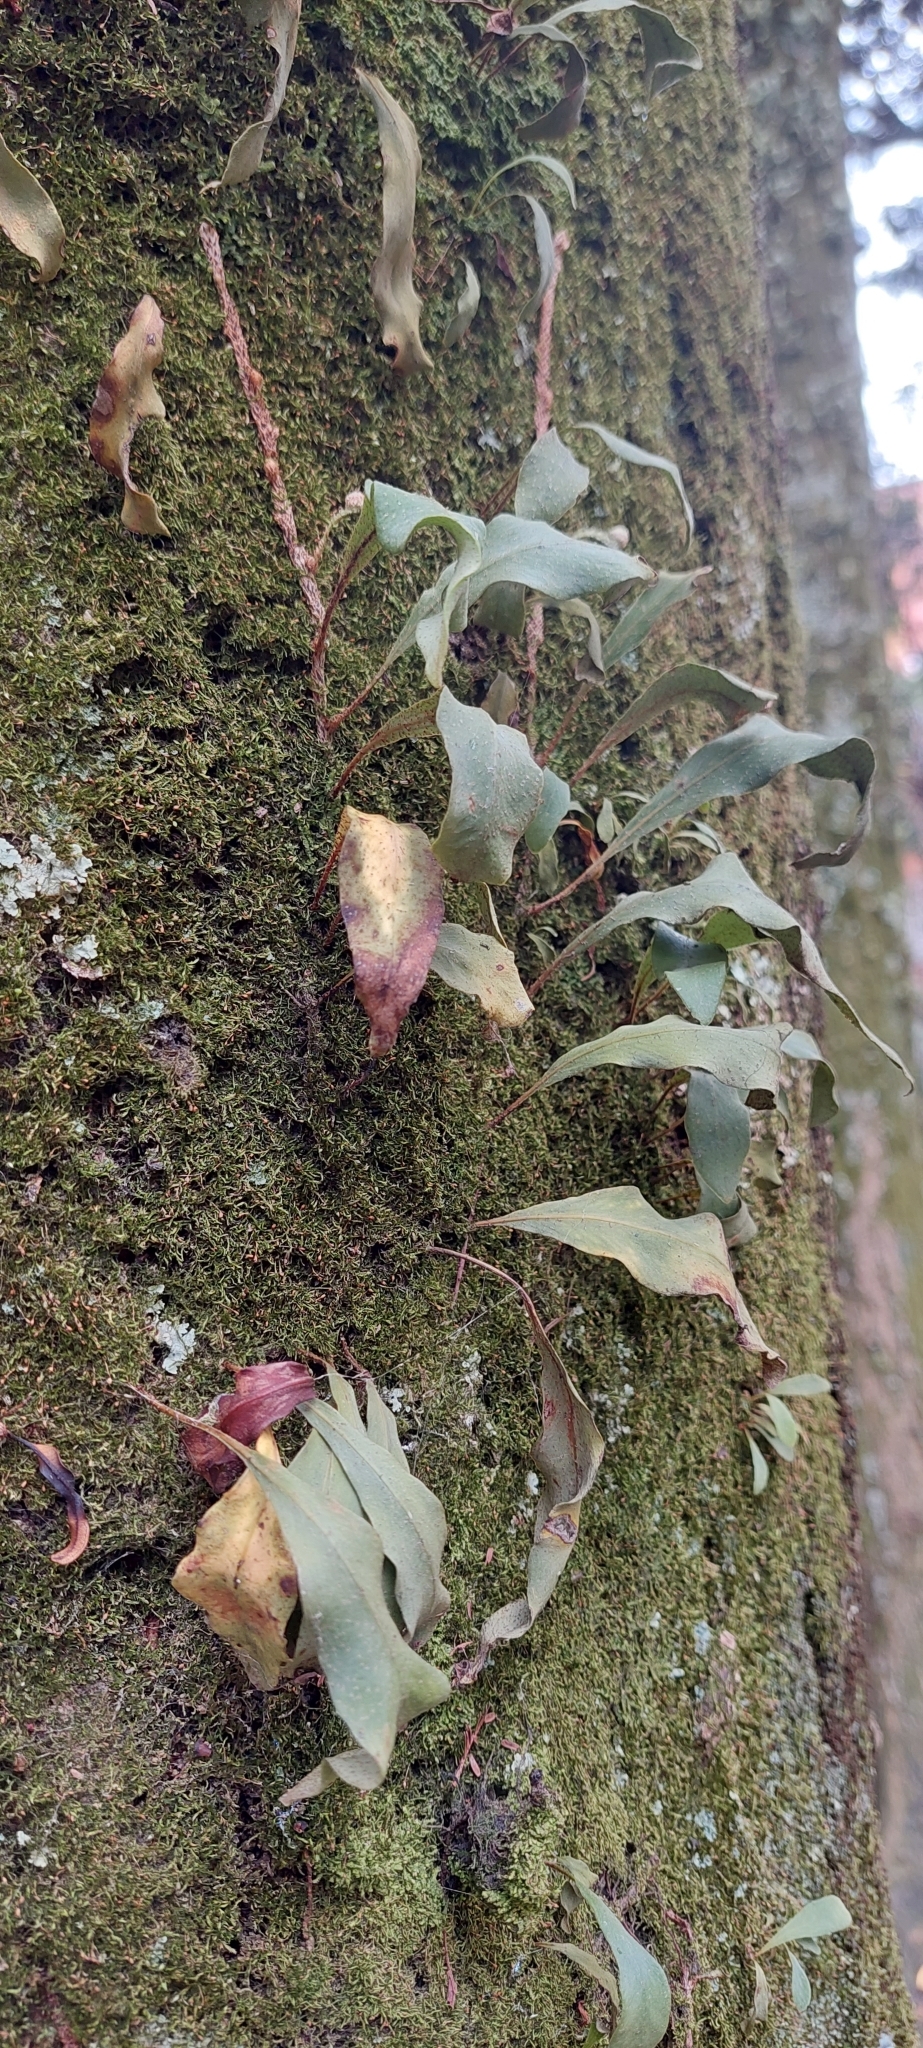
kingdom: Plantae
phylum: Tracheophyta
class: Polypodiopsida
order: Polypodiales
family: Polypodiaceae
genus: Pleopeltis
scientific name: Pleopeltis macrocarpa
